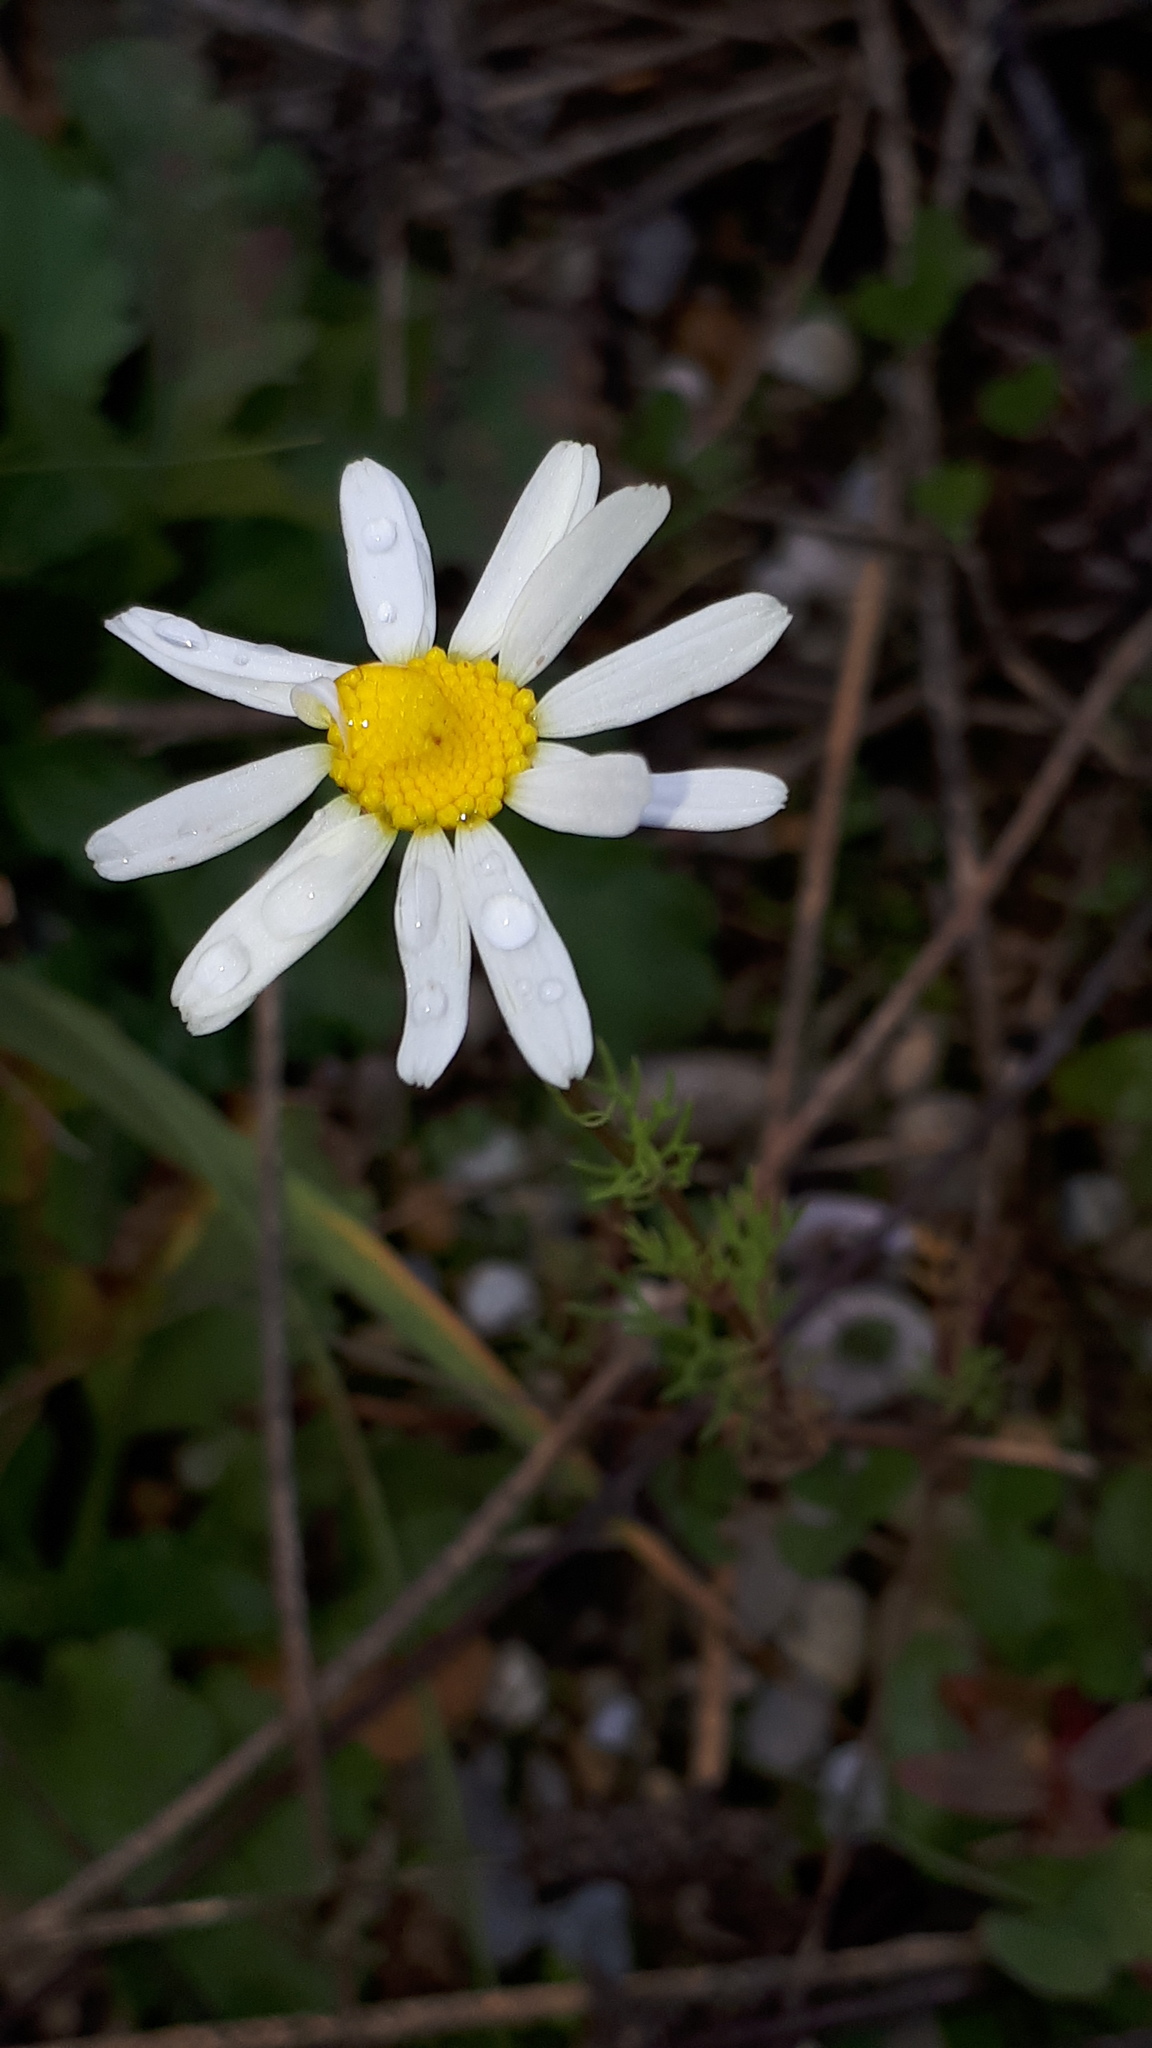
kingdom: Plantae
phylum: Tracheophyta
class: Magnoliopsida
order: Asterales
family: Asteraceae
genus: Tripleurospermum
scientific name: Tripleurospermum inodorum
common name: Scentless mayweed
